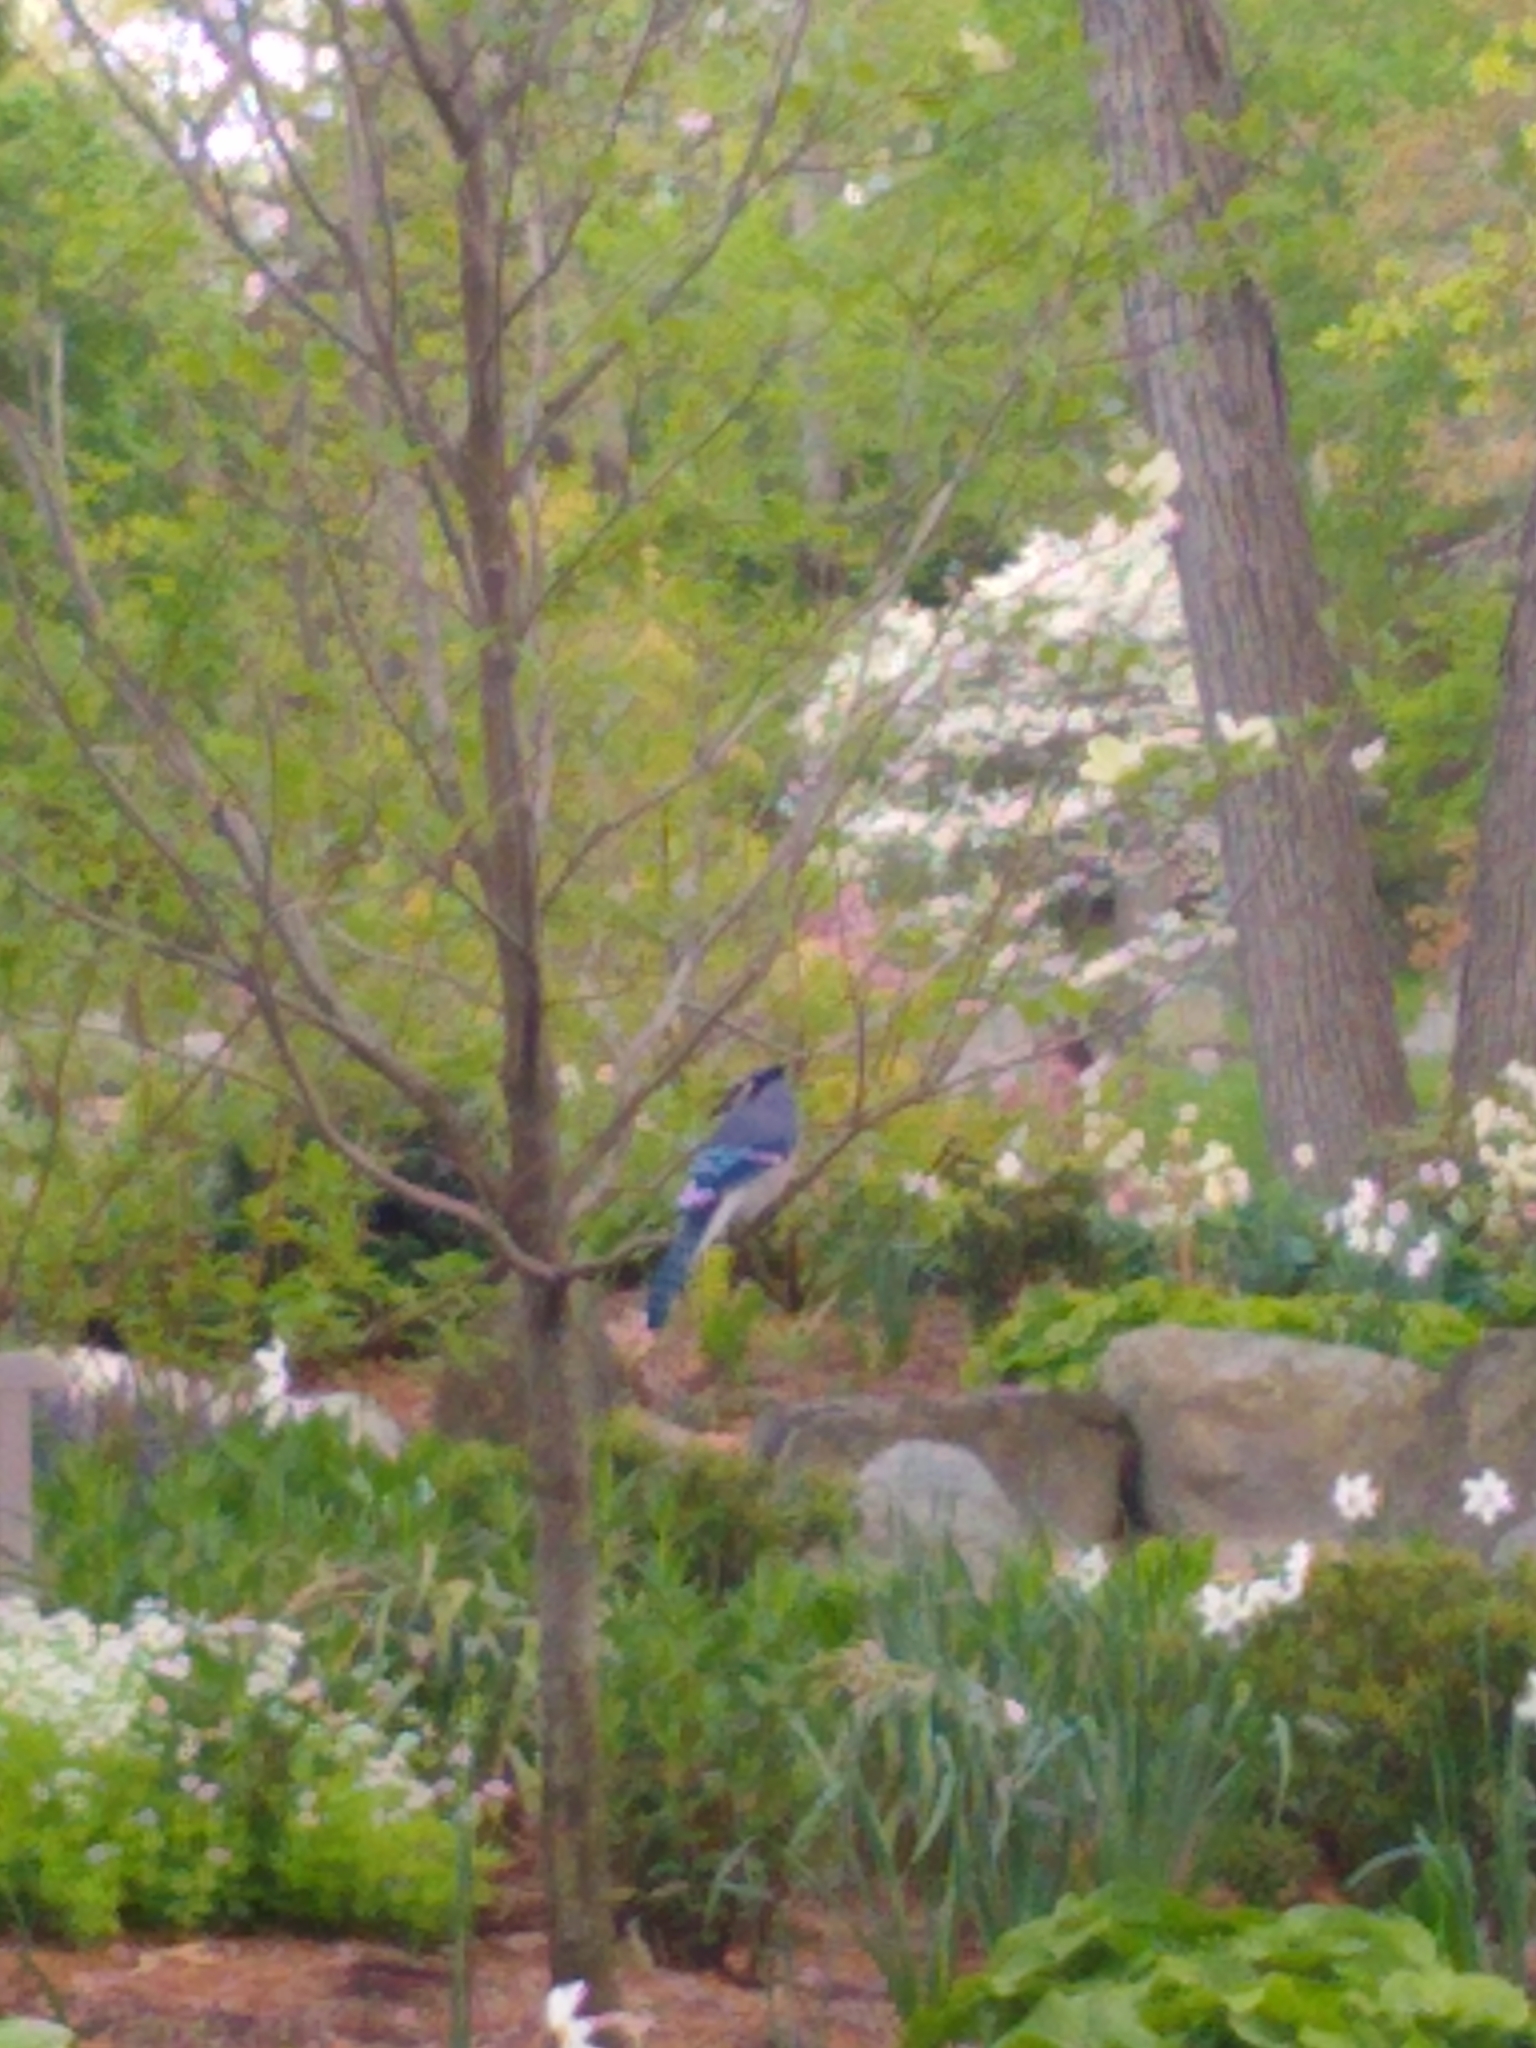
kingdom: Animalia
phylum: Chordata
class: Aves
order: Passeriformes
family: Corvidae
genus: Cyanocitta
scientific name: Cyanocitta cristata
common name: Blue jay
